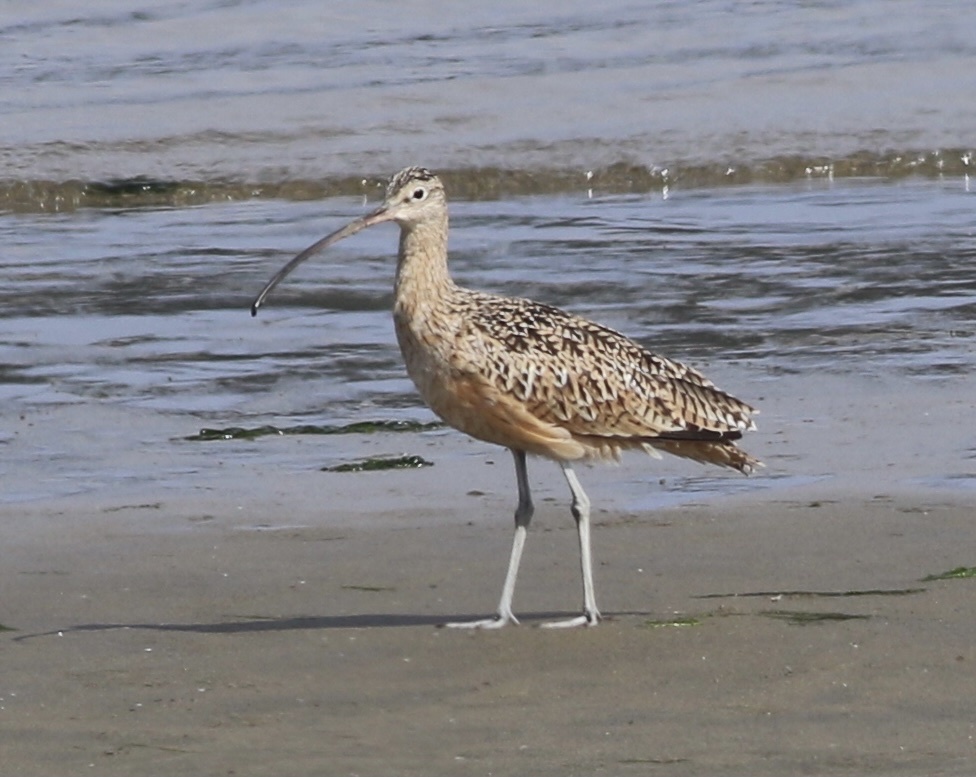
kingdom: Animalia
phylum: Chordata
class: Aves
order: Charadriiformes
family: Scolopacidae
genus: Numenius
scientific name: Numenius americanus
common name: Long-billed curlew
